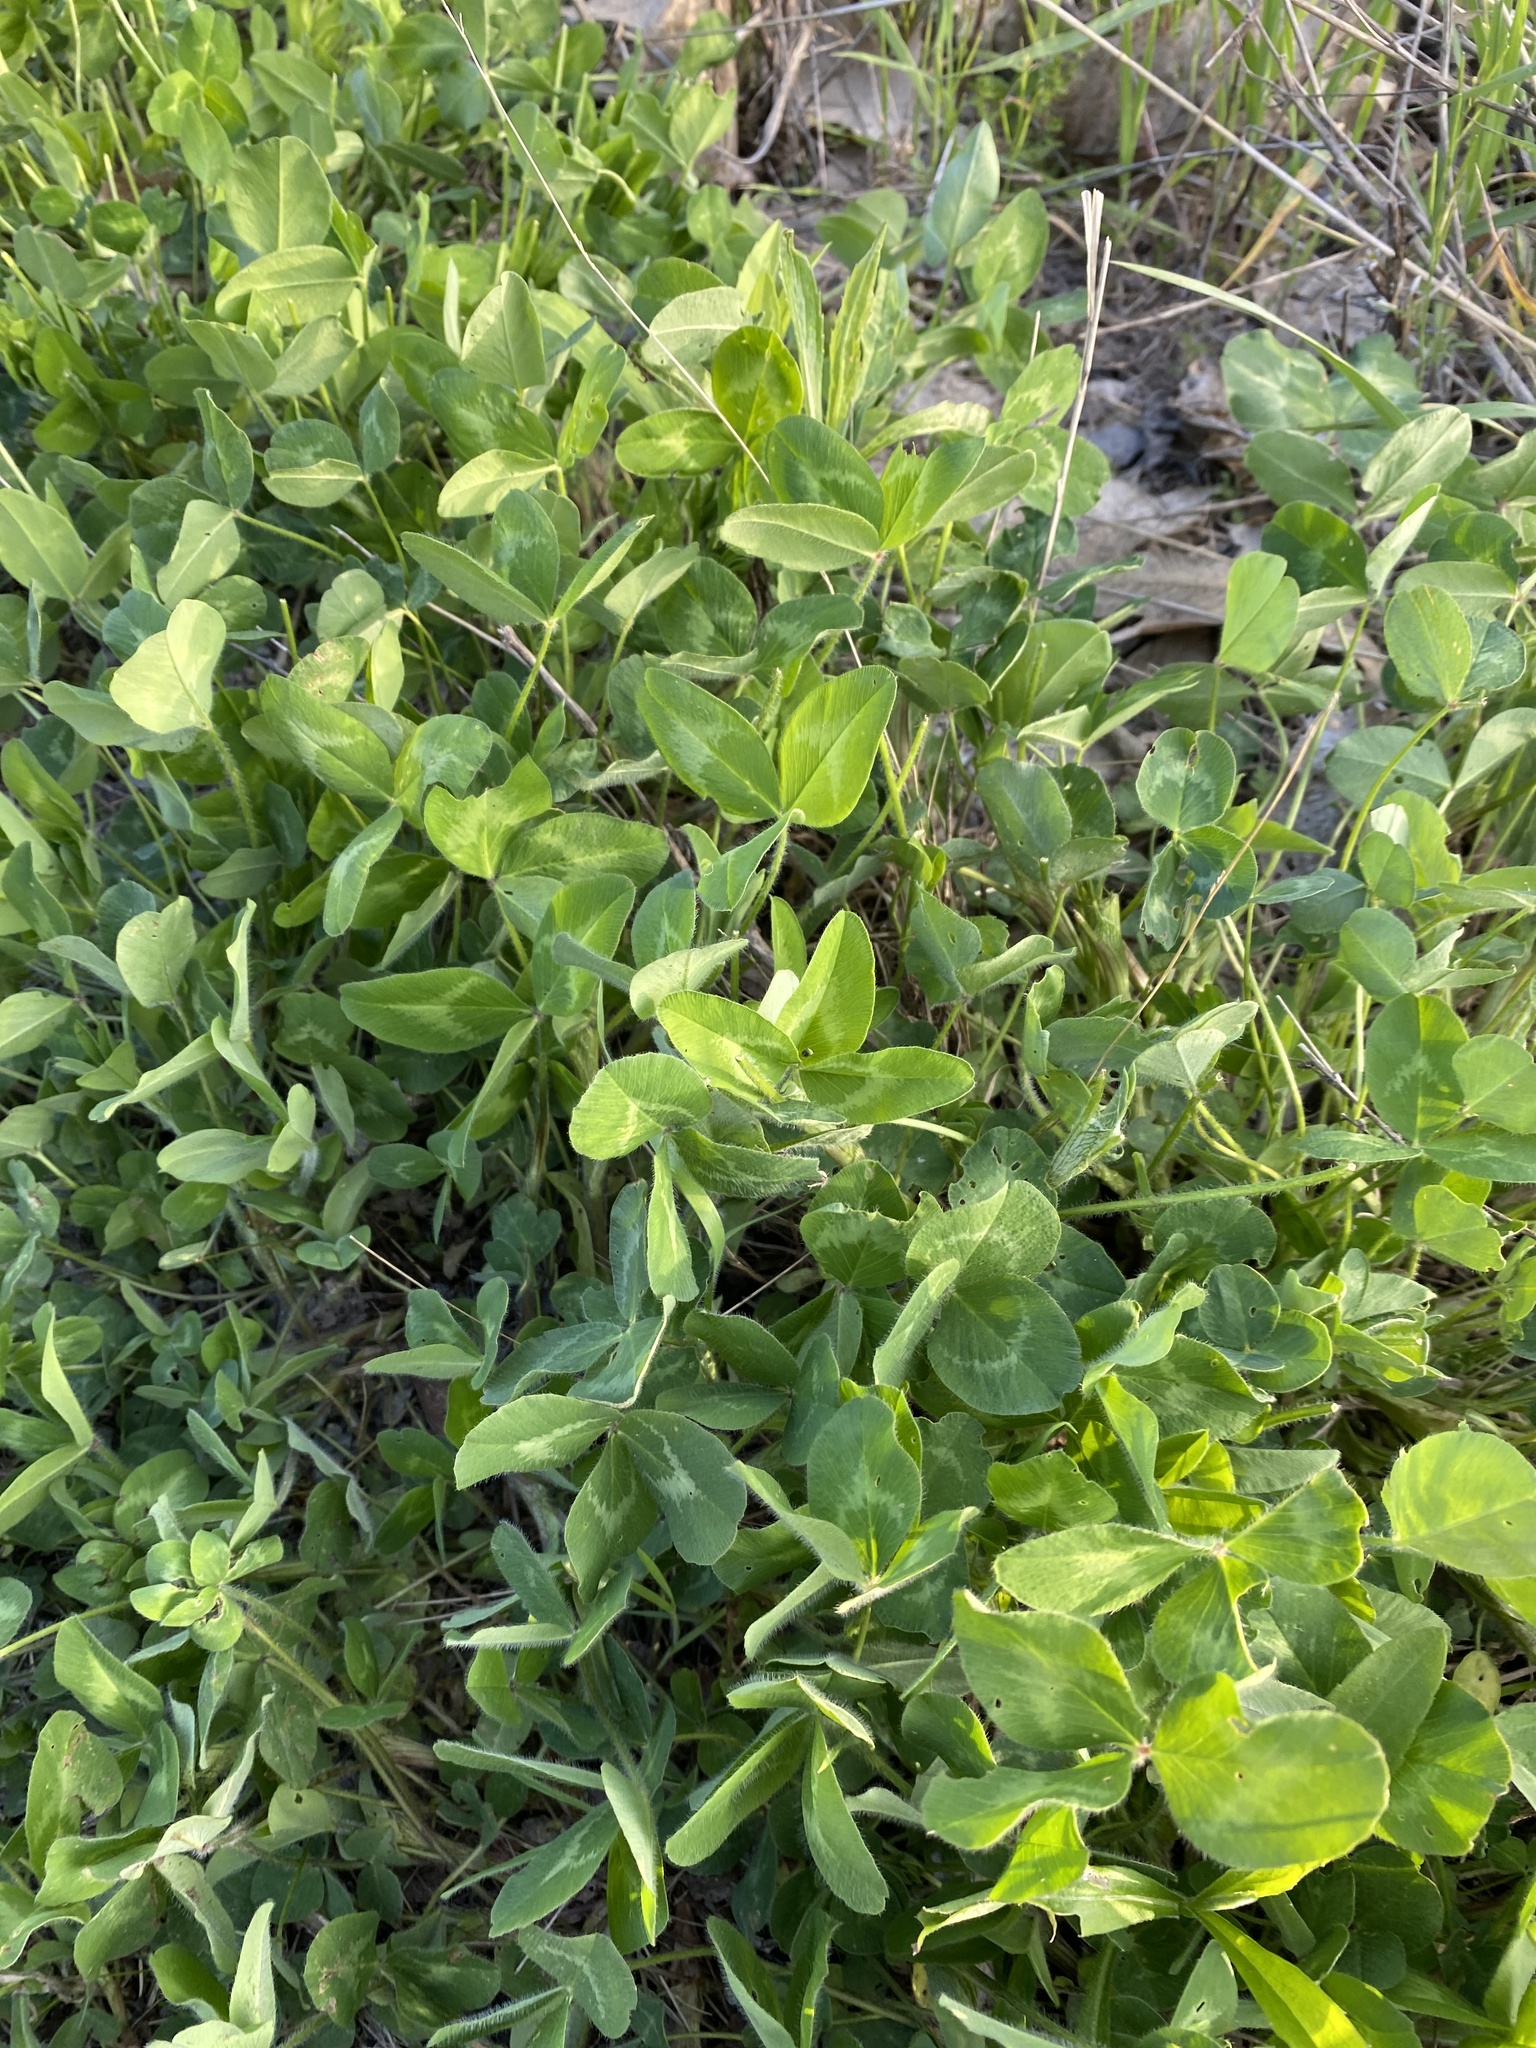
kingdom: Plantae
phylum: Tracheophyta
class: Magnoliopsida
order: Fabales
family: Fabaceae
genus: Trifolium
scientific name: Trifolium pratense
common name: Red clover
